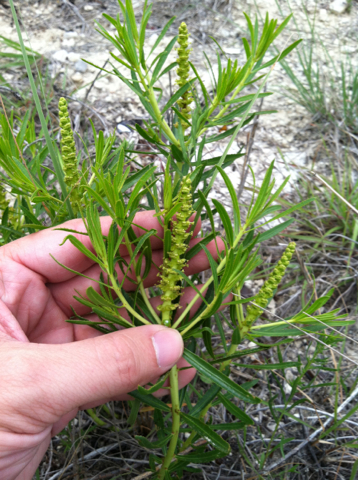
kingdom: Plantae
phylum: Tracheophyta
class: Magnoliopsida
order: Malpighiales
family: Euphorbiaceae
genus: Stillingia
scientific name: Stillingia texana
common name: Texas stillingia
